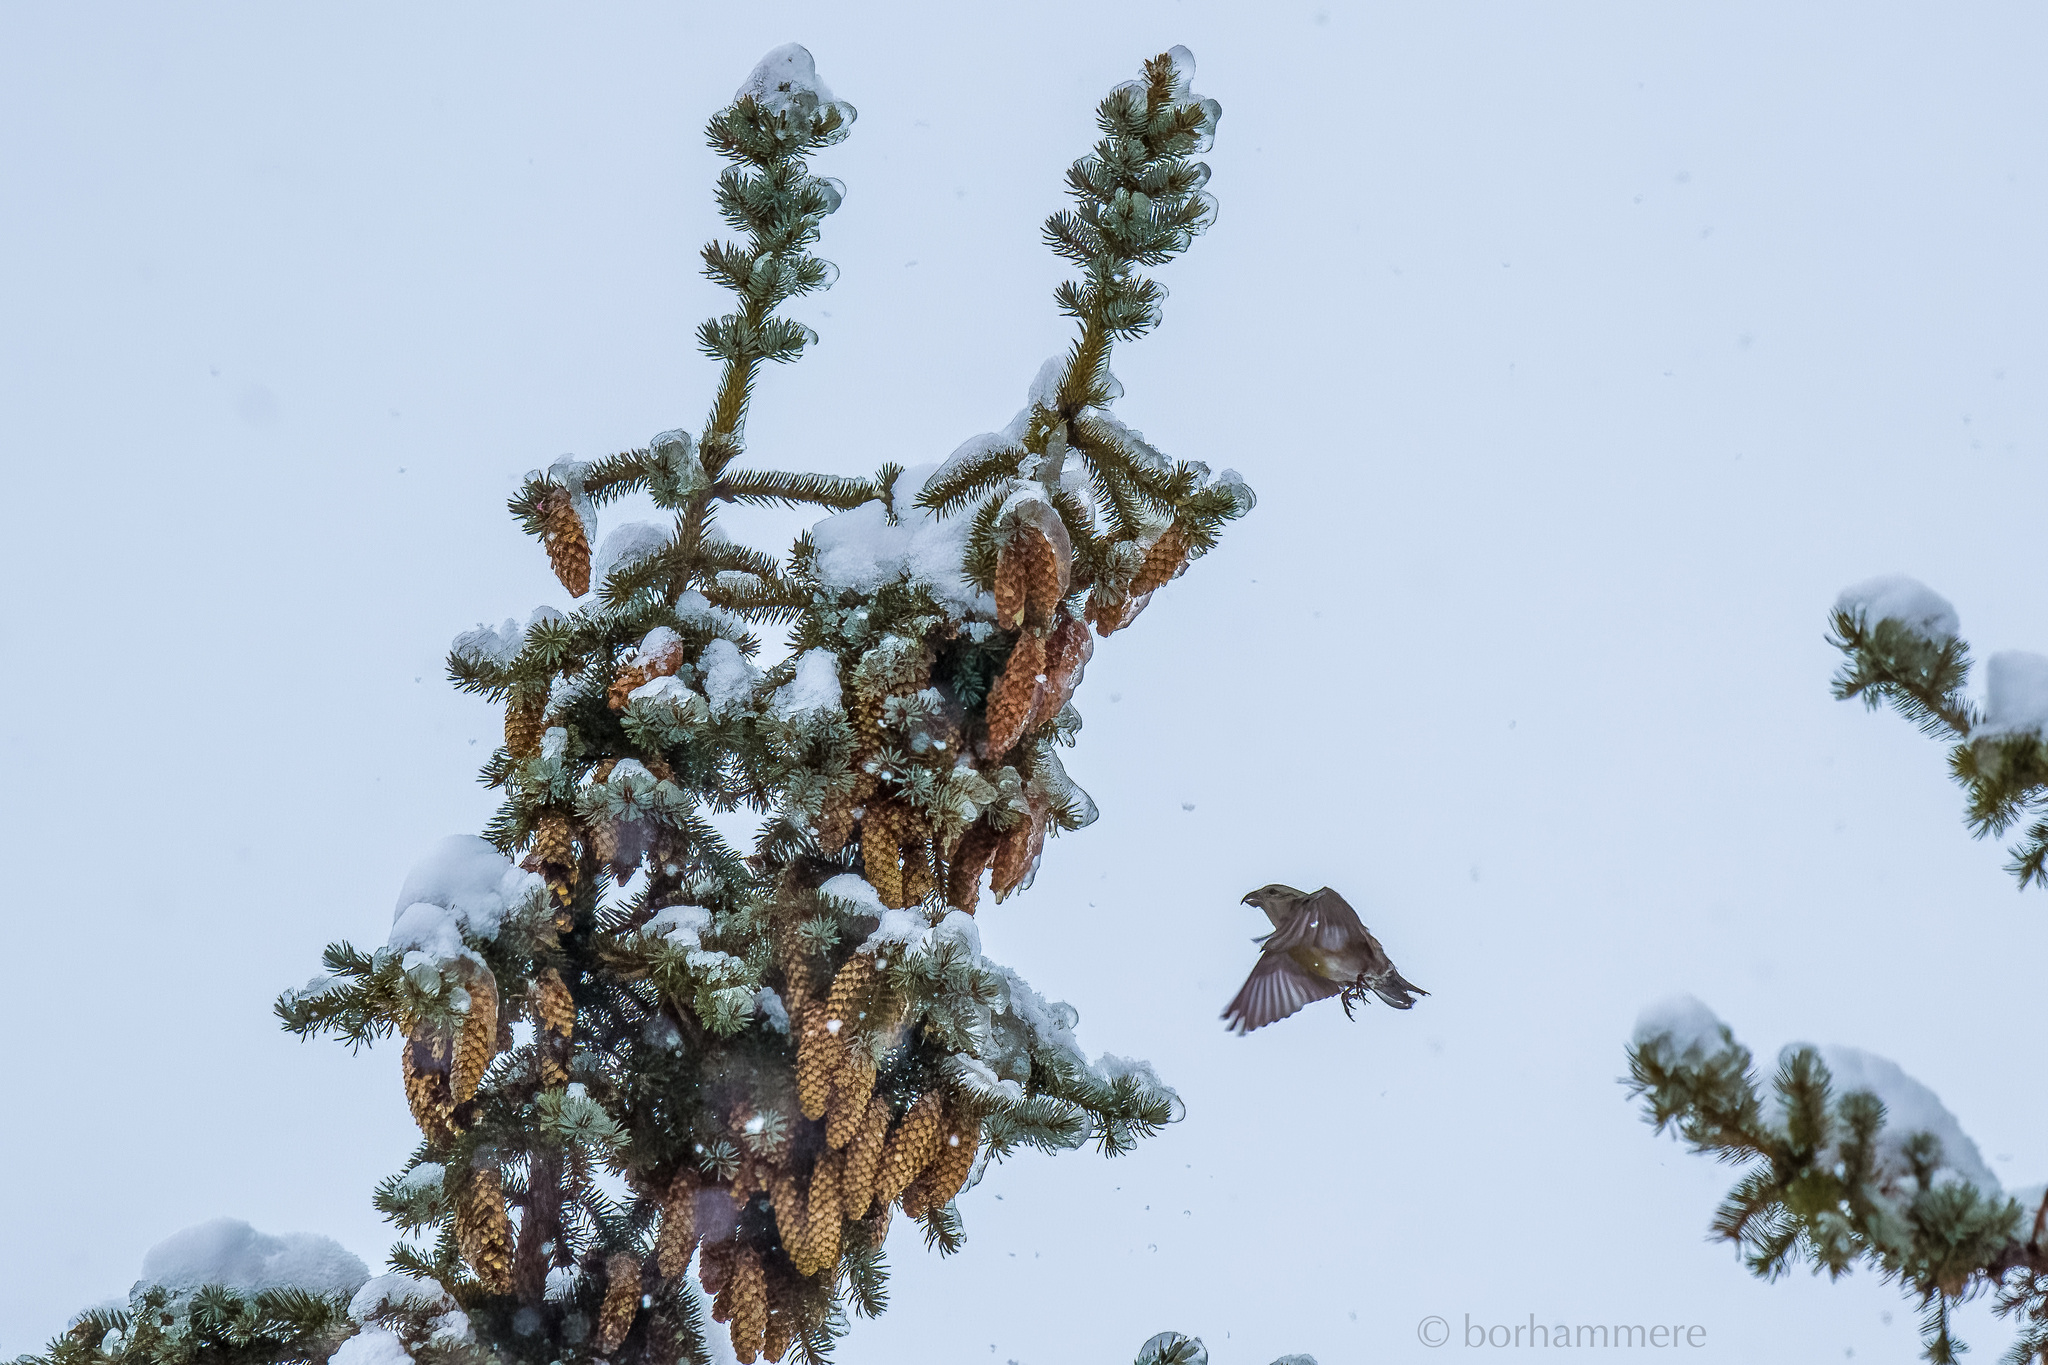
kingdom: Animalia
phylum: Chordata
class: Aves
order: Passeriformes
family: Fringillidae
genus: Loxia
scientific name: Loxia curvirostra
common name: Red crossbill
